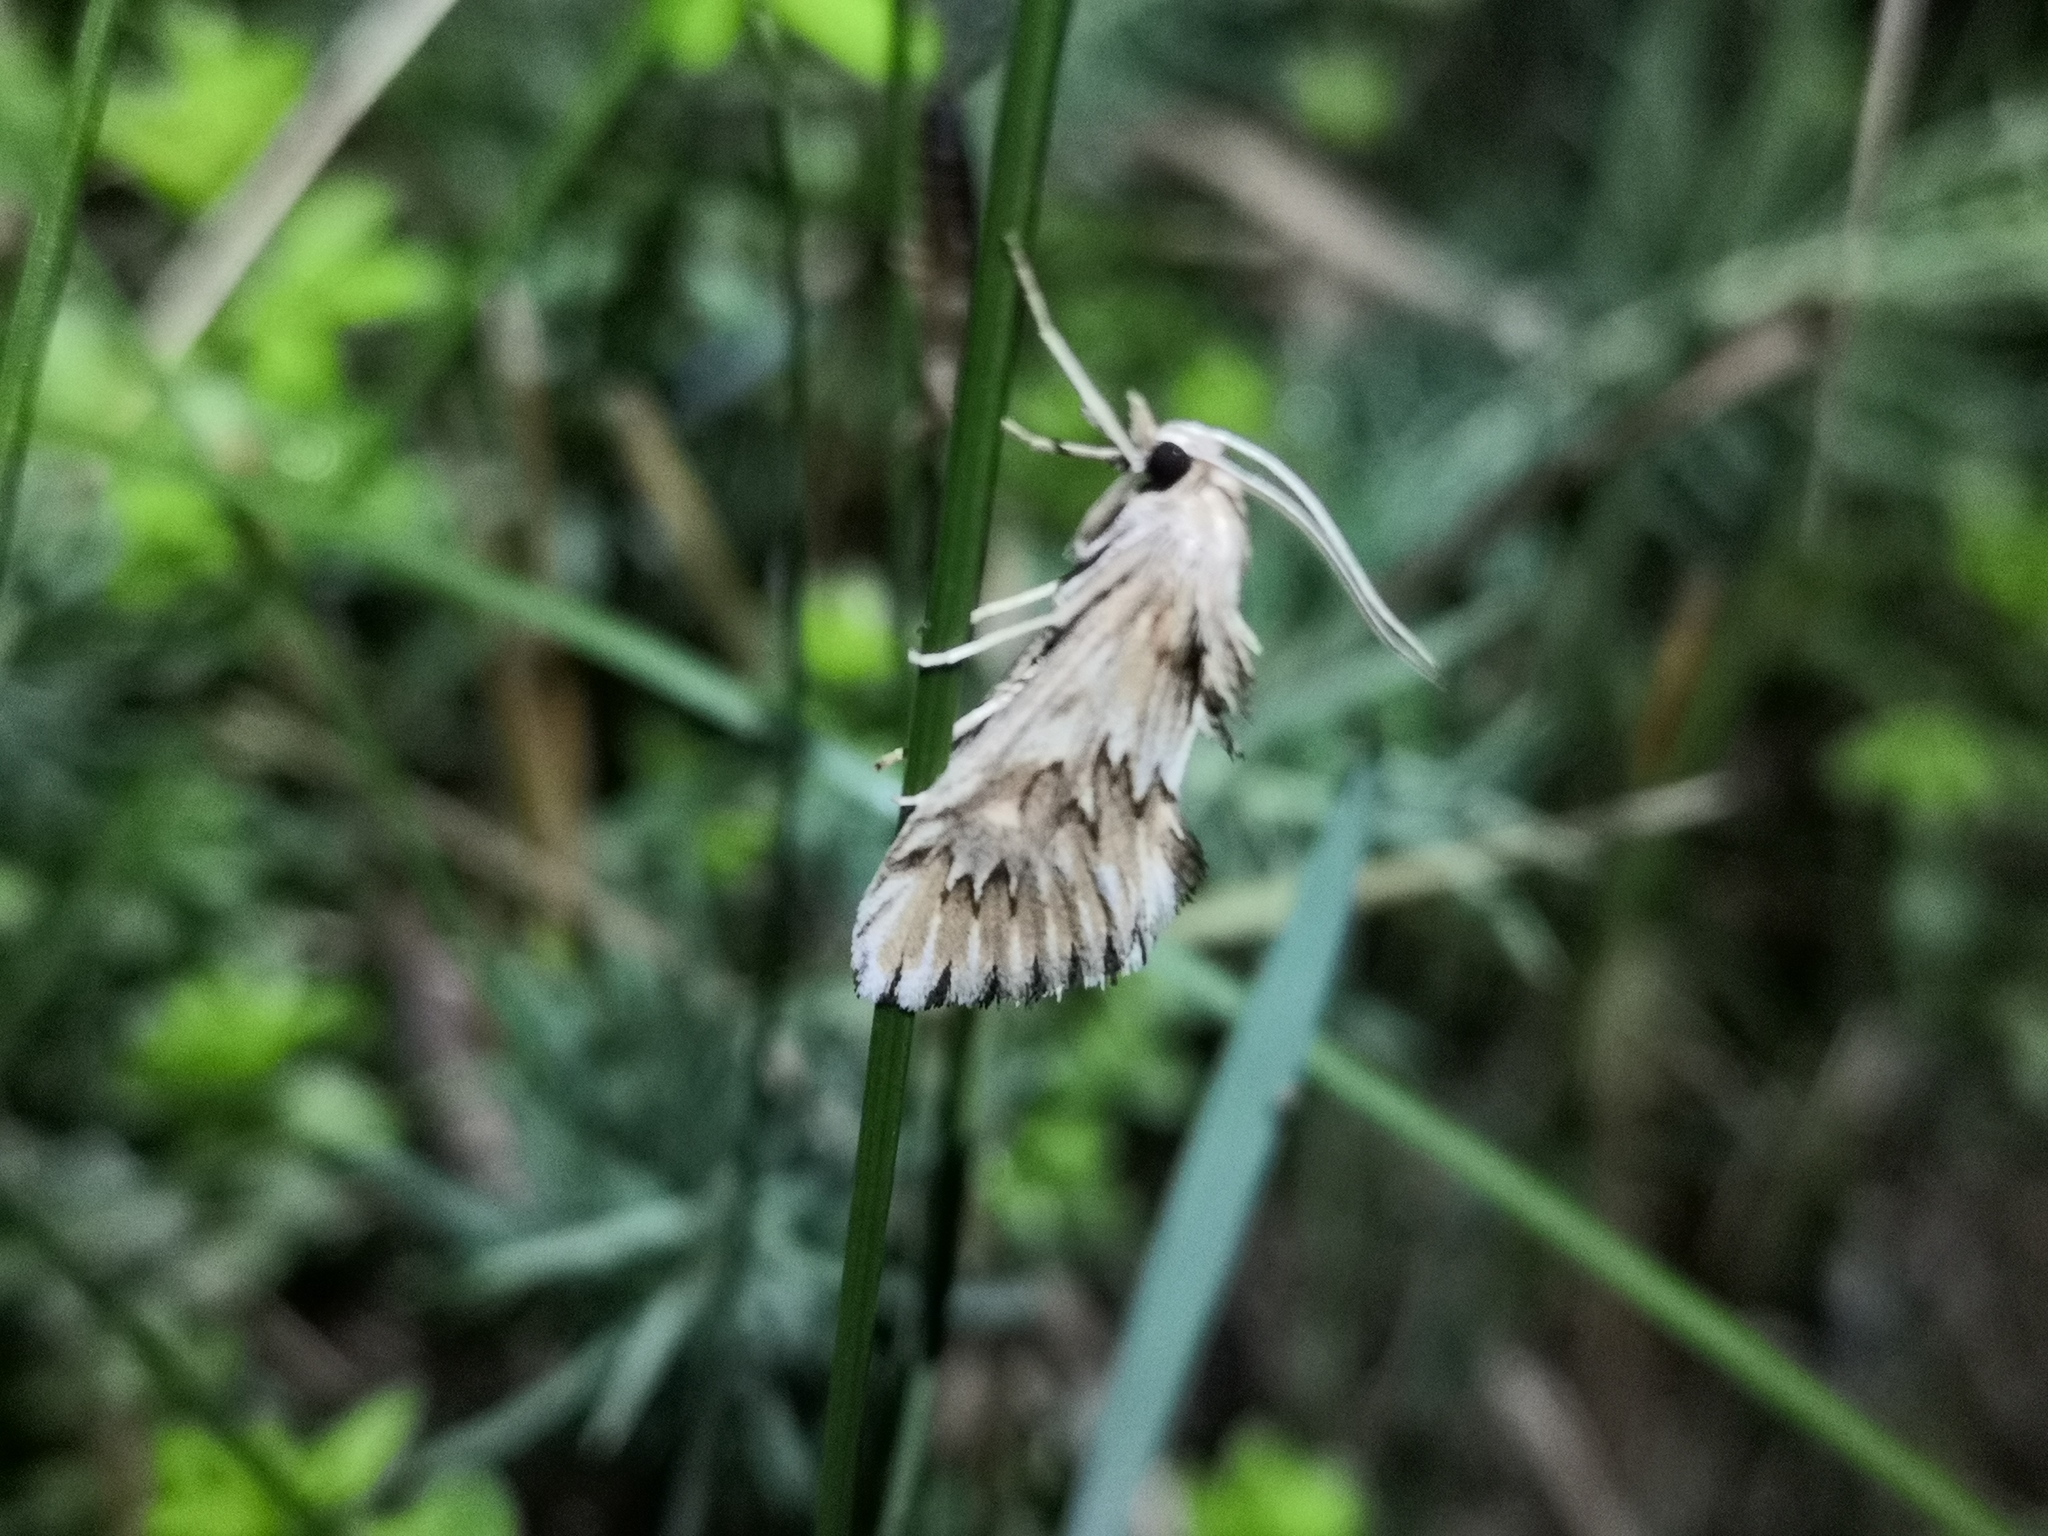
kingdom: Animalia
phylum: Arthropoda
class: Insecta
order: Lepidoptera
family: Crambidae
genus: Cynaeda
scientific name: Cynaeda dentalis
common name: Starry pearl
